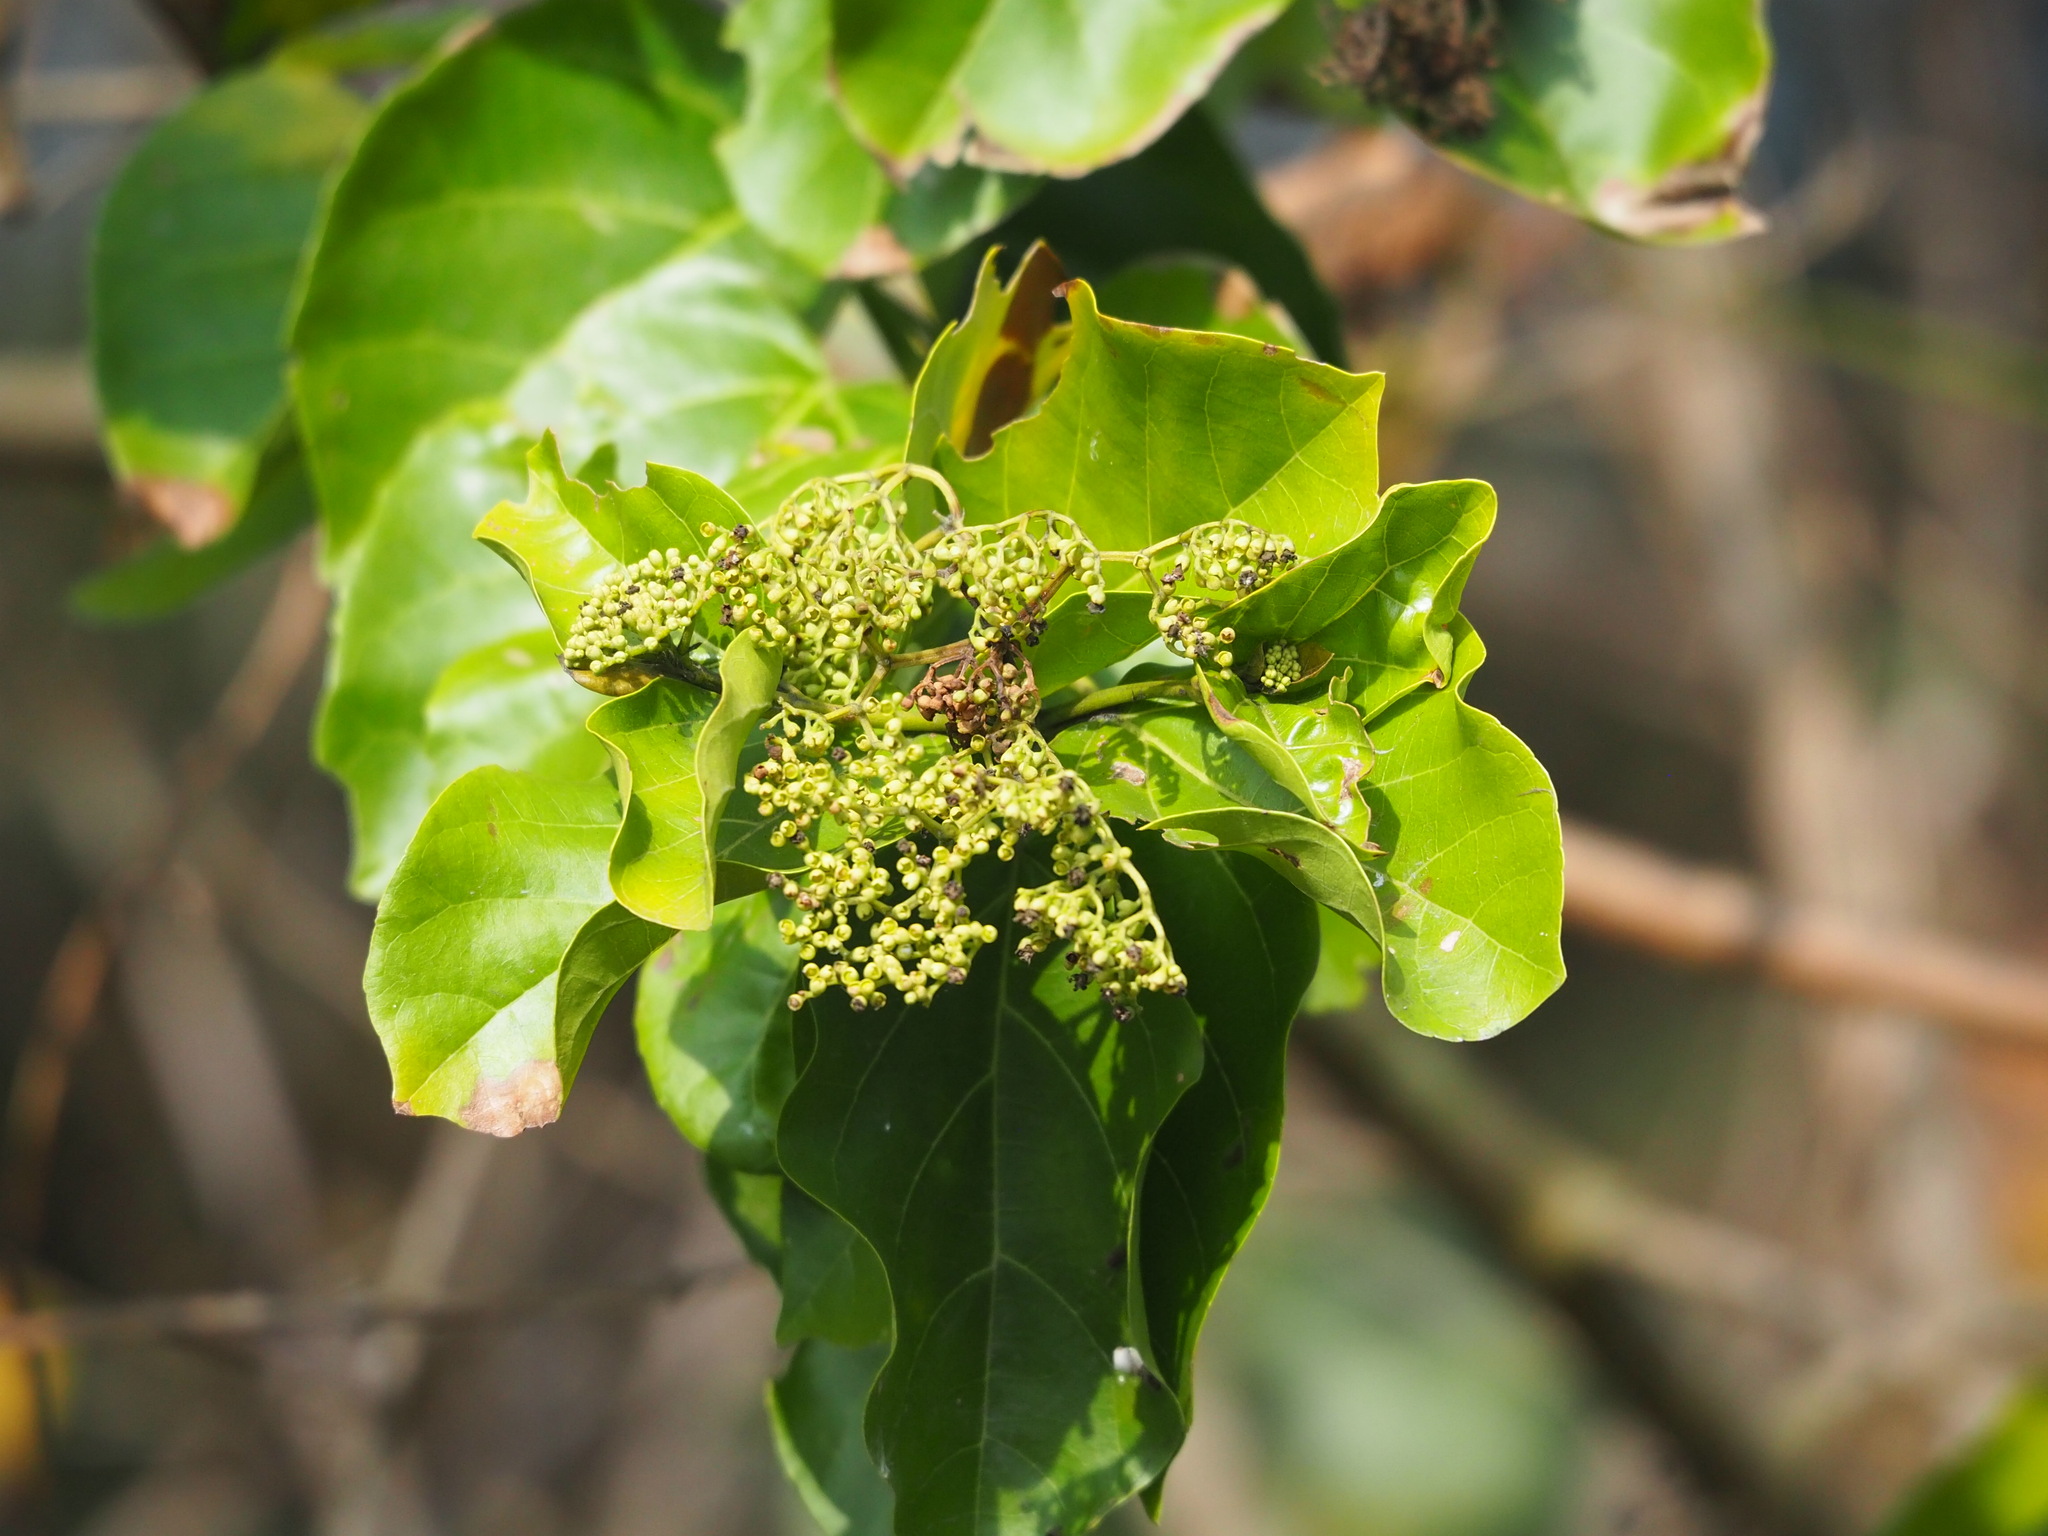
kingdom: Plantae
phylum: Tracheophyta
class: Magnoliopsida
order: Lamiales
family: Lamiaceae
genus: Premna
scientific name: Premna serratifolia
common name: Bastard guelder
